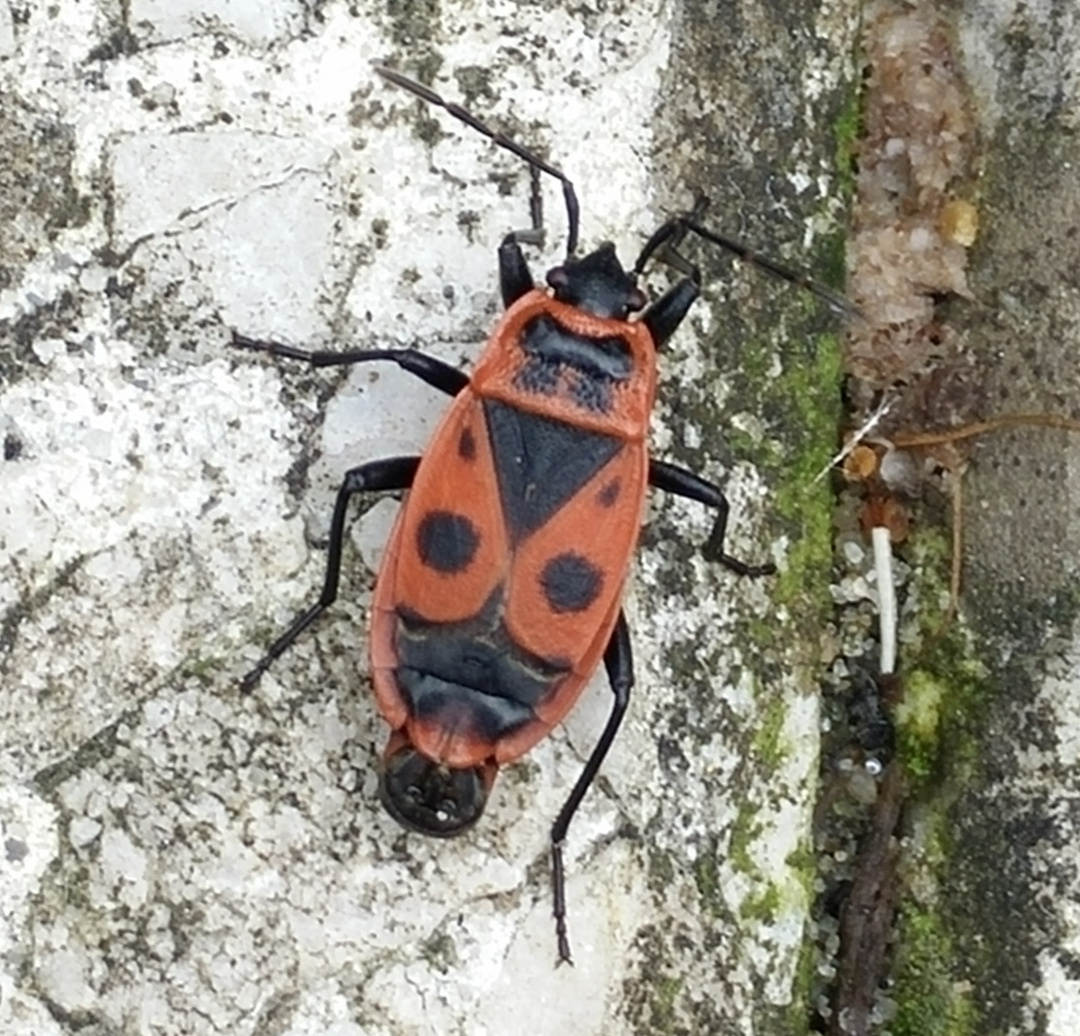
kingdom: Animalia
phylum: Arthropoda
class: Insecta
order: Hemiptera
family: Pyrrhocoridae
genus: Pyrrhocoris
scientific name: Pyrrhocoris apterus
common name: Firebug
